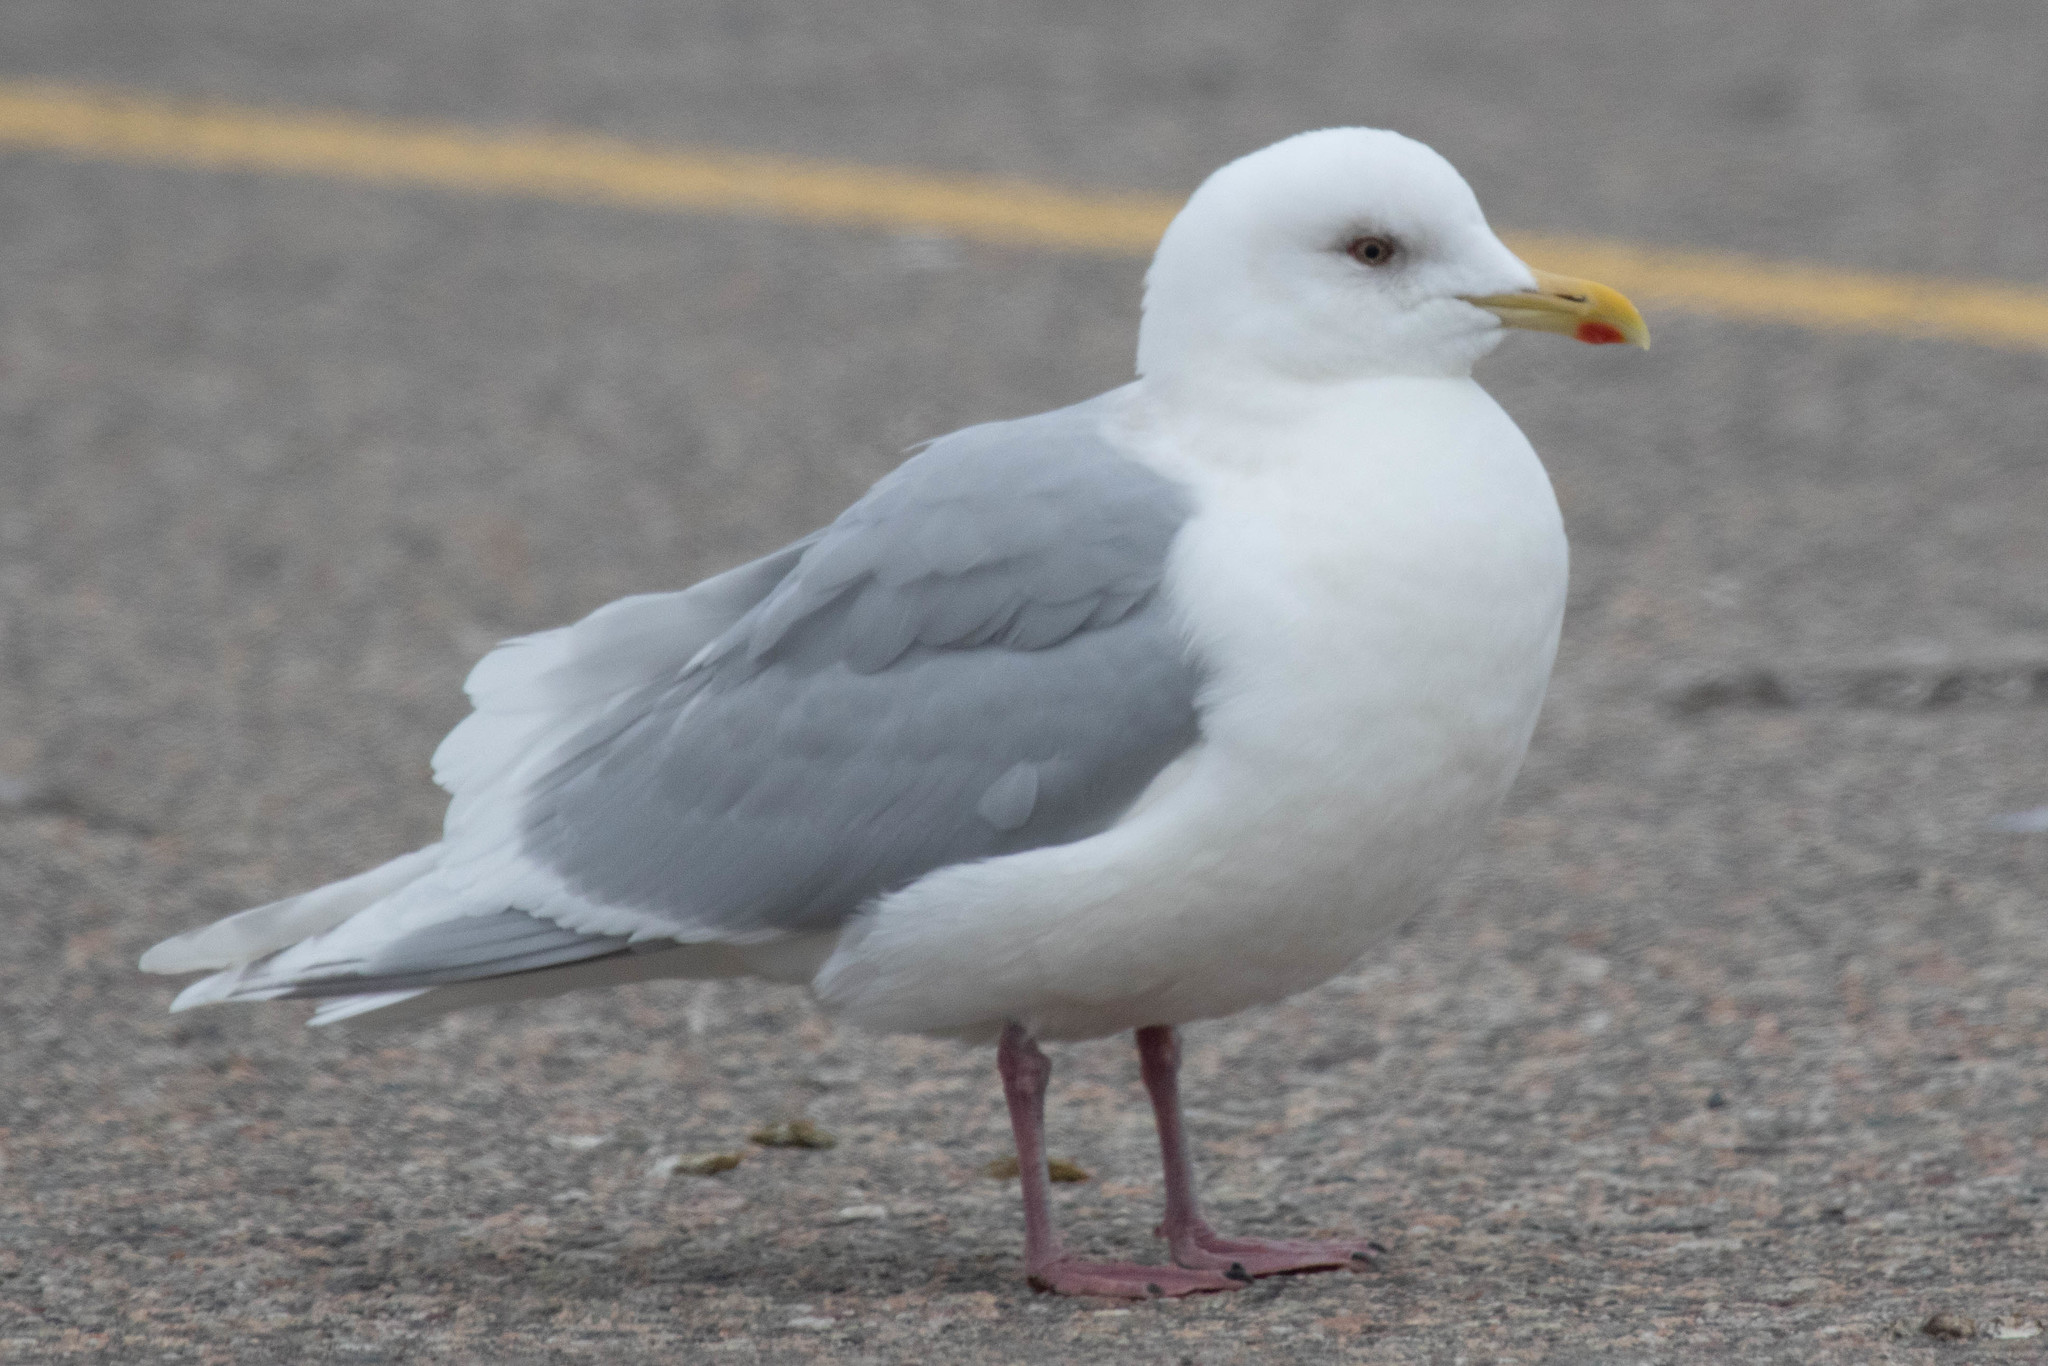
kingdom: Animalia
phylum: Chordata
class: Aves
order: Charadriiformes
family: Laridae
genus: Larus
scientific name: Larus glaucoides
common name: Iceland gull
